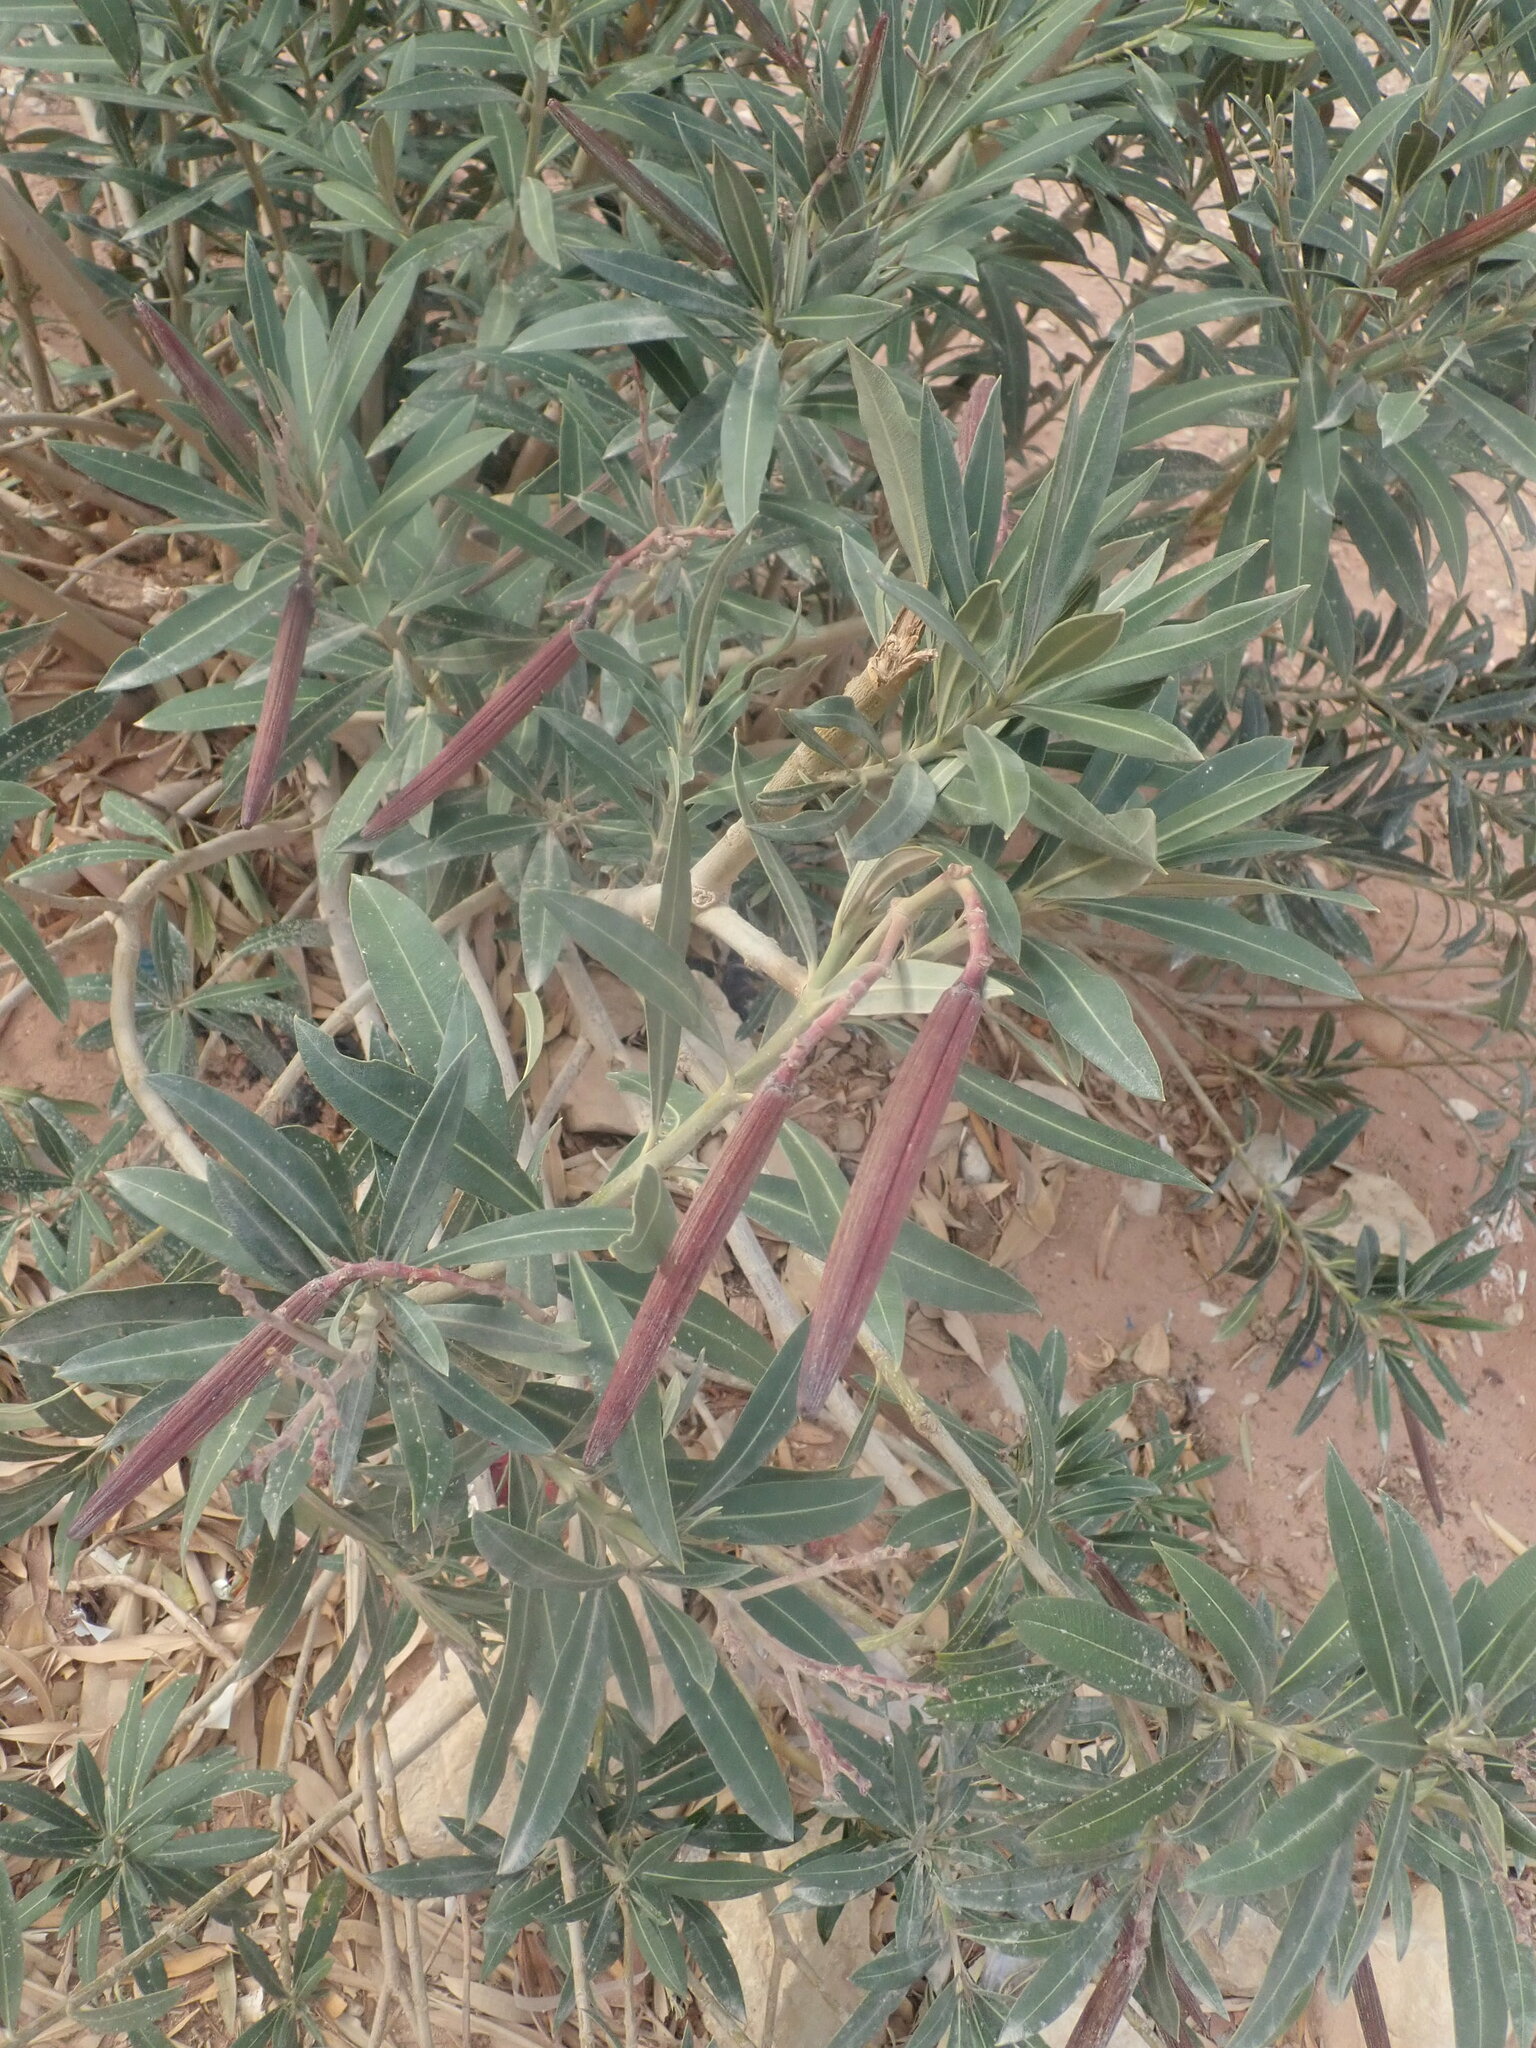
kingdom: Plantae
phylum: Tracheophyta
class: Magnoliopsida
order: Gentianales
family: Apocynaceae
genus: Nerium
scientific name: Nerium oleander
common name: Oleander
